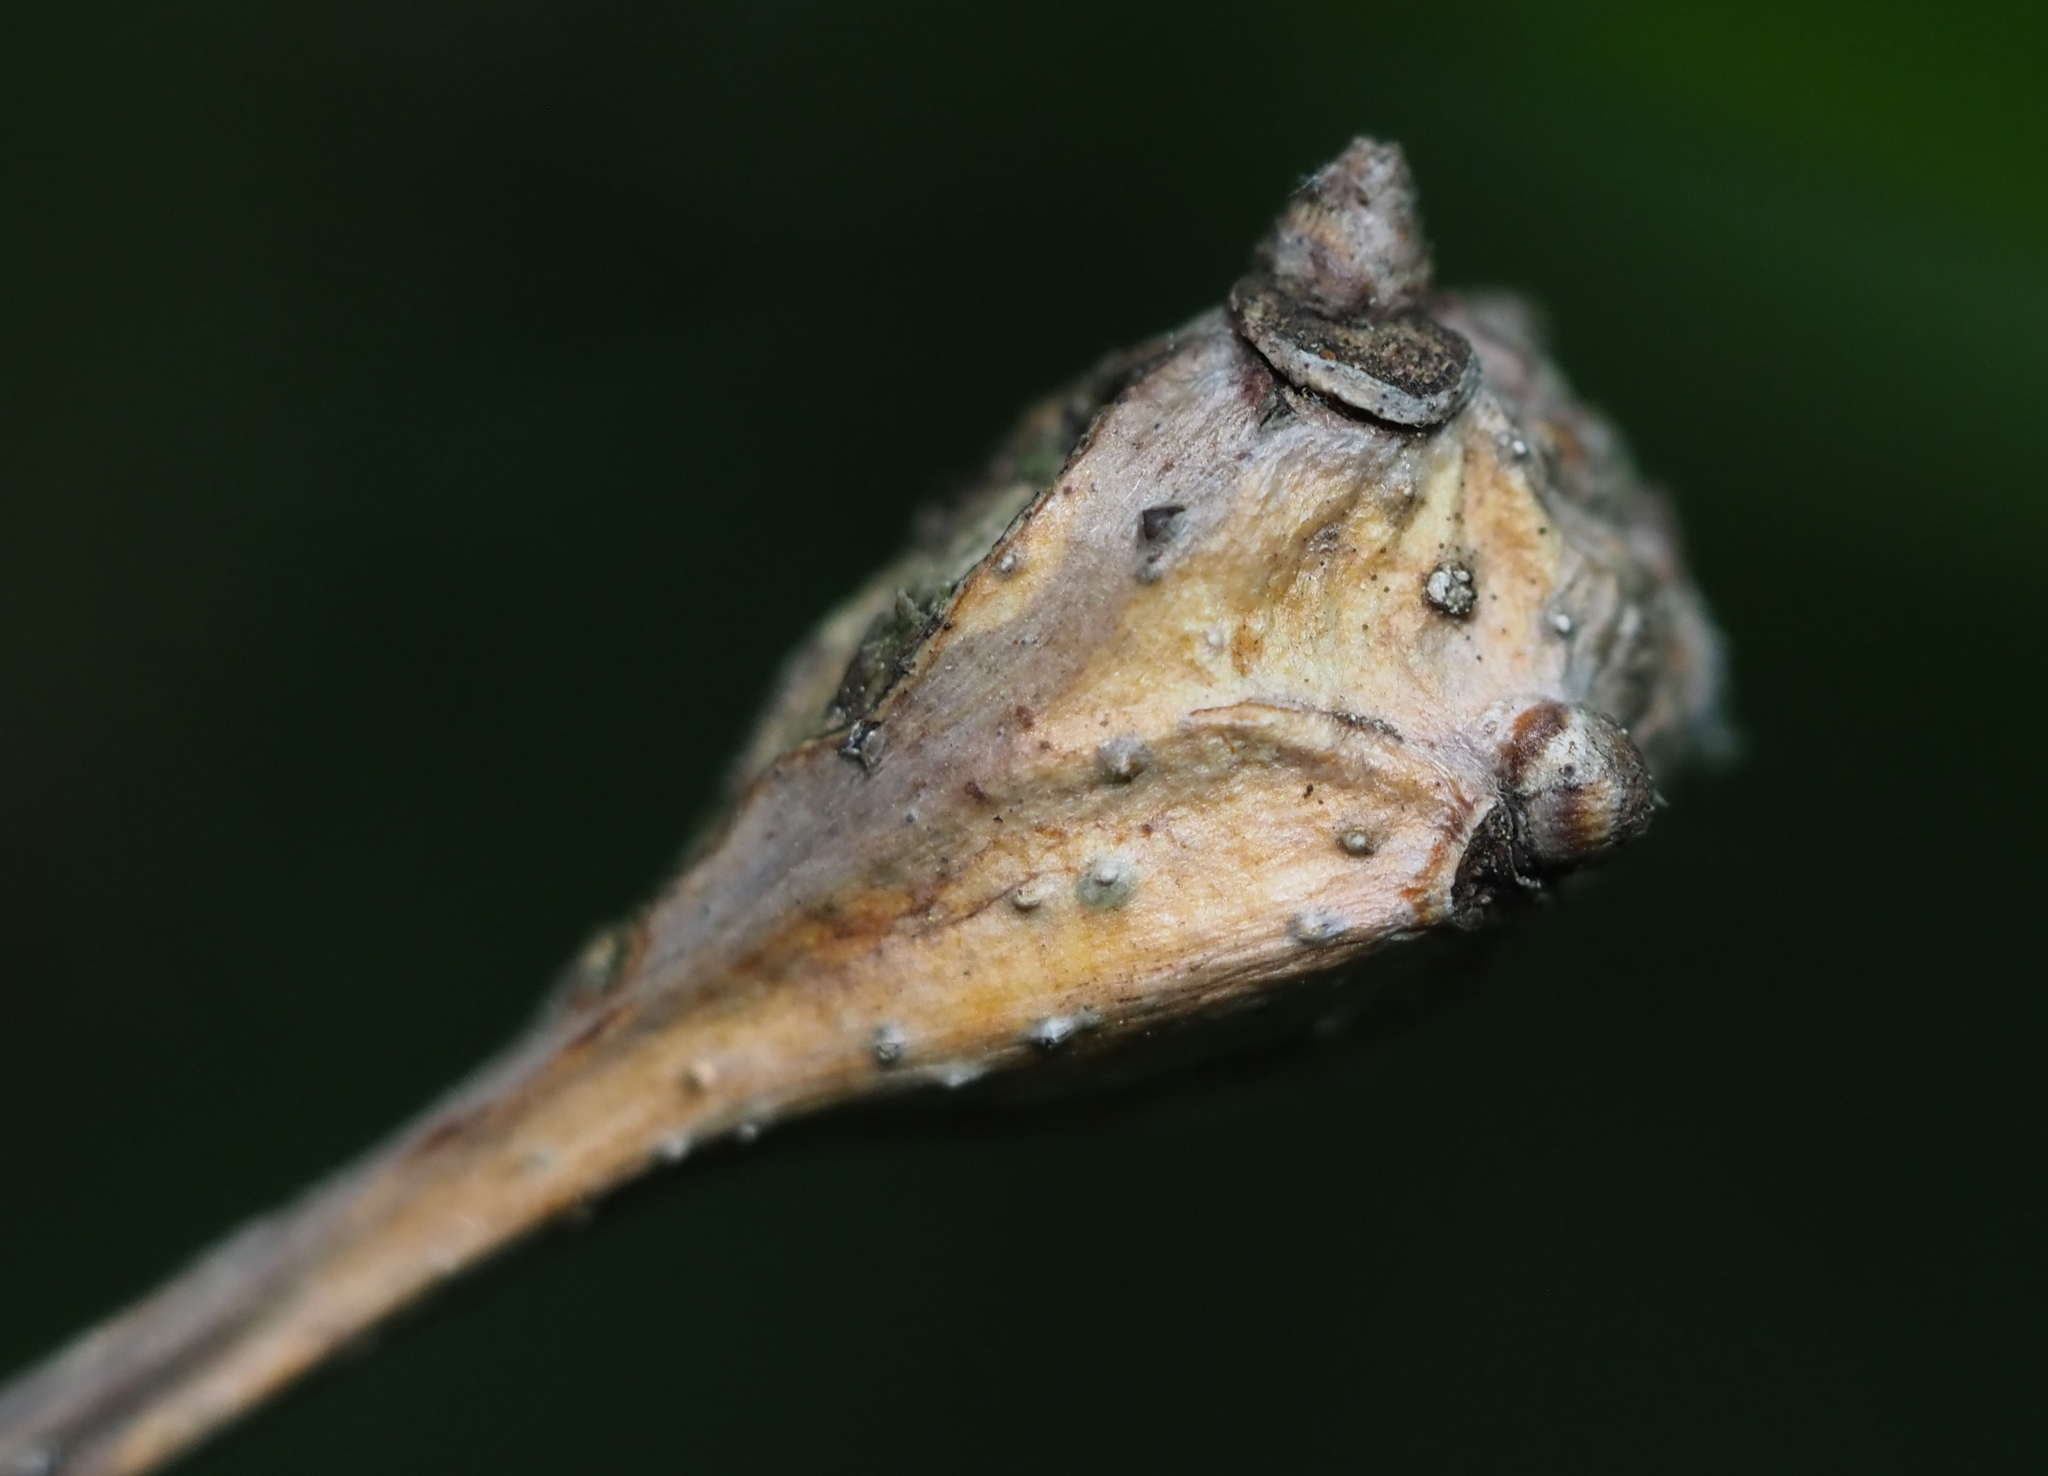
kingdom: Animalia
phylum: Arthropoda
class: Insecta
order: Hymenoptera
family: Cynipidae
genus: Callirhytis
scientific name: Callirhytis clavula
